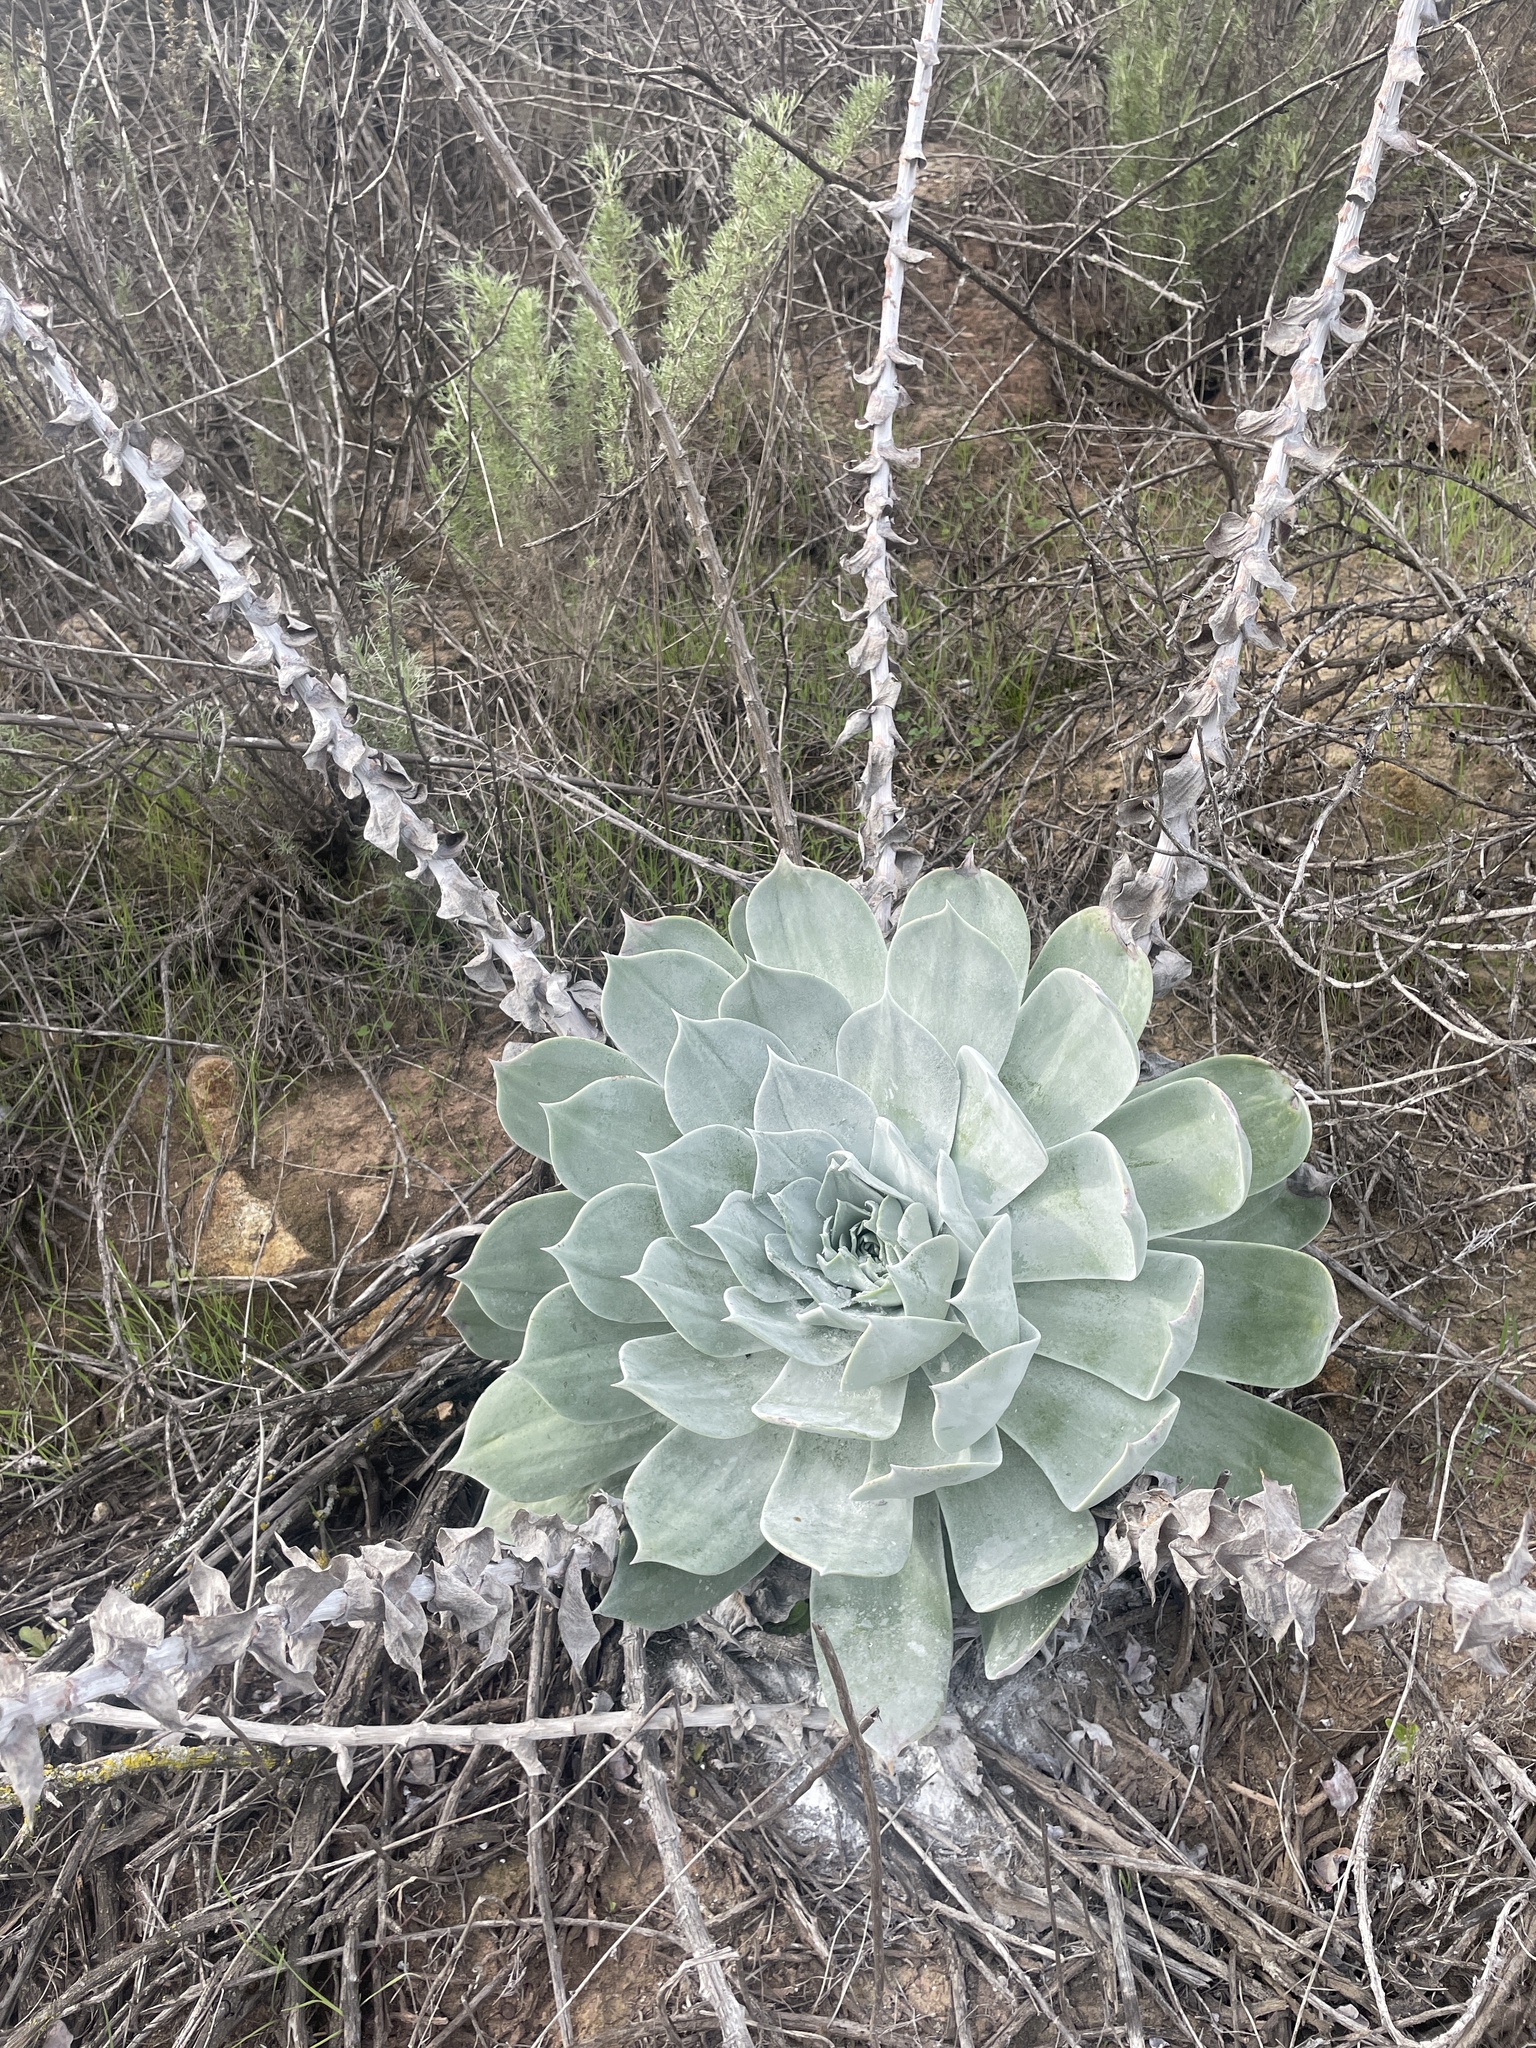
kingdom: Plantae
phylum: Tracheophyta
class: Magnoliopsida
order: Saxifragales
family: Crassulaceae
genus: Dudleya
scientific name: Dudleya pulverulenta
